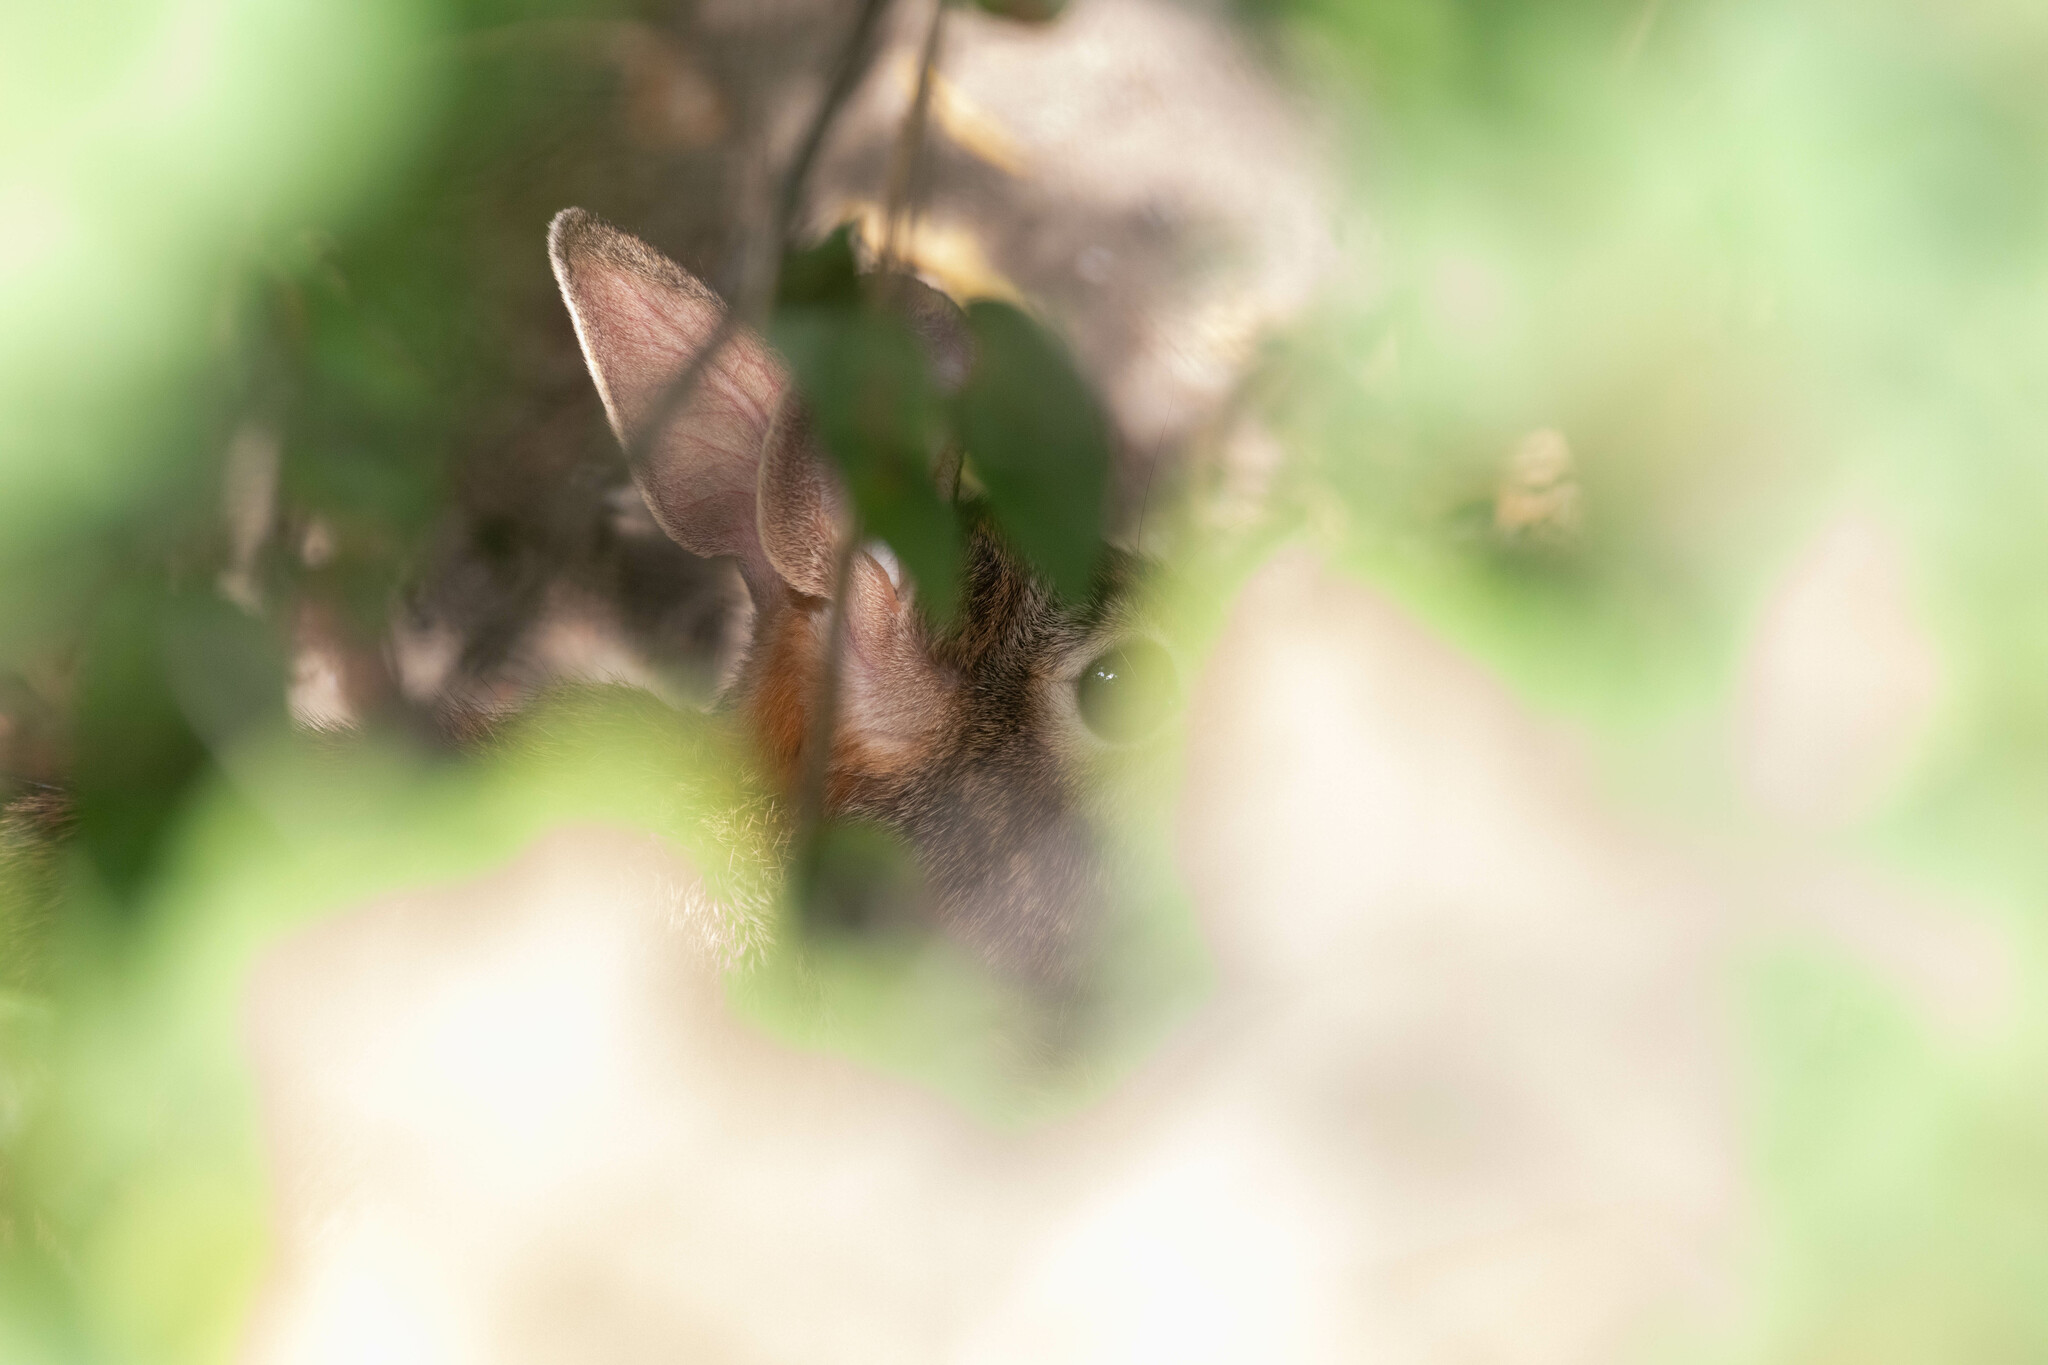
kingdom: Animalia
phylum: Chordata
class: Mammalia
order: Lagomorpha
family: Leporidae
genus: Sylvilagus
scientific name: Sylvilagus floridanus
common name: Eastern cottontail
